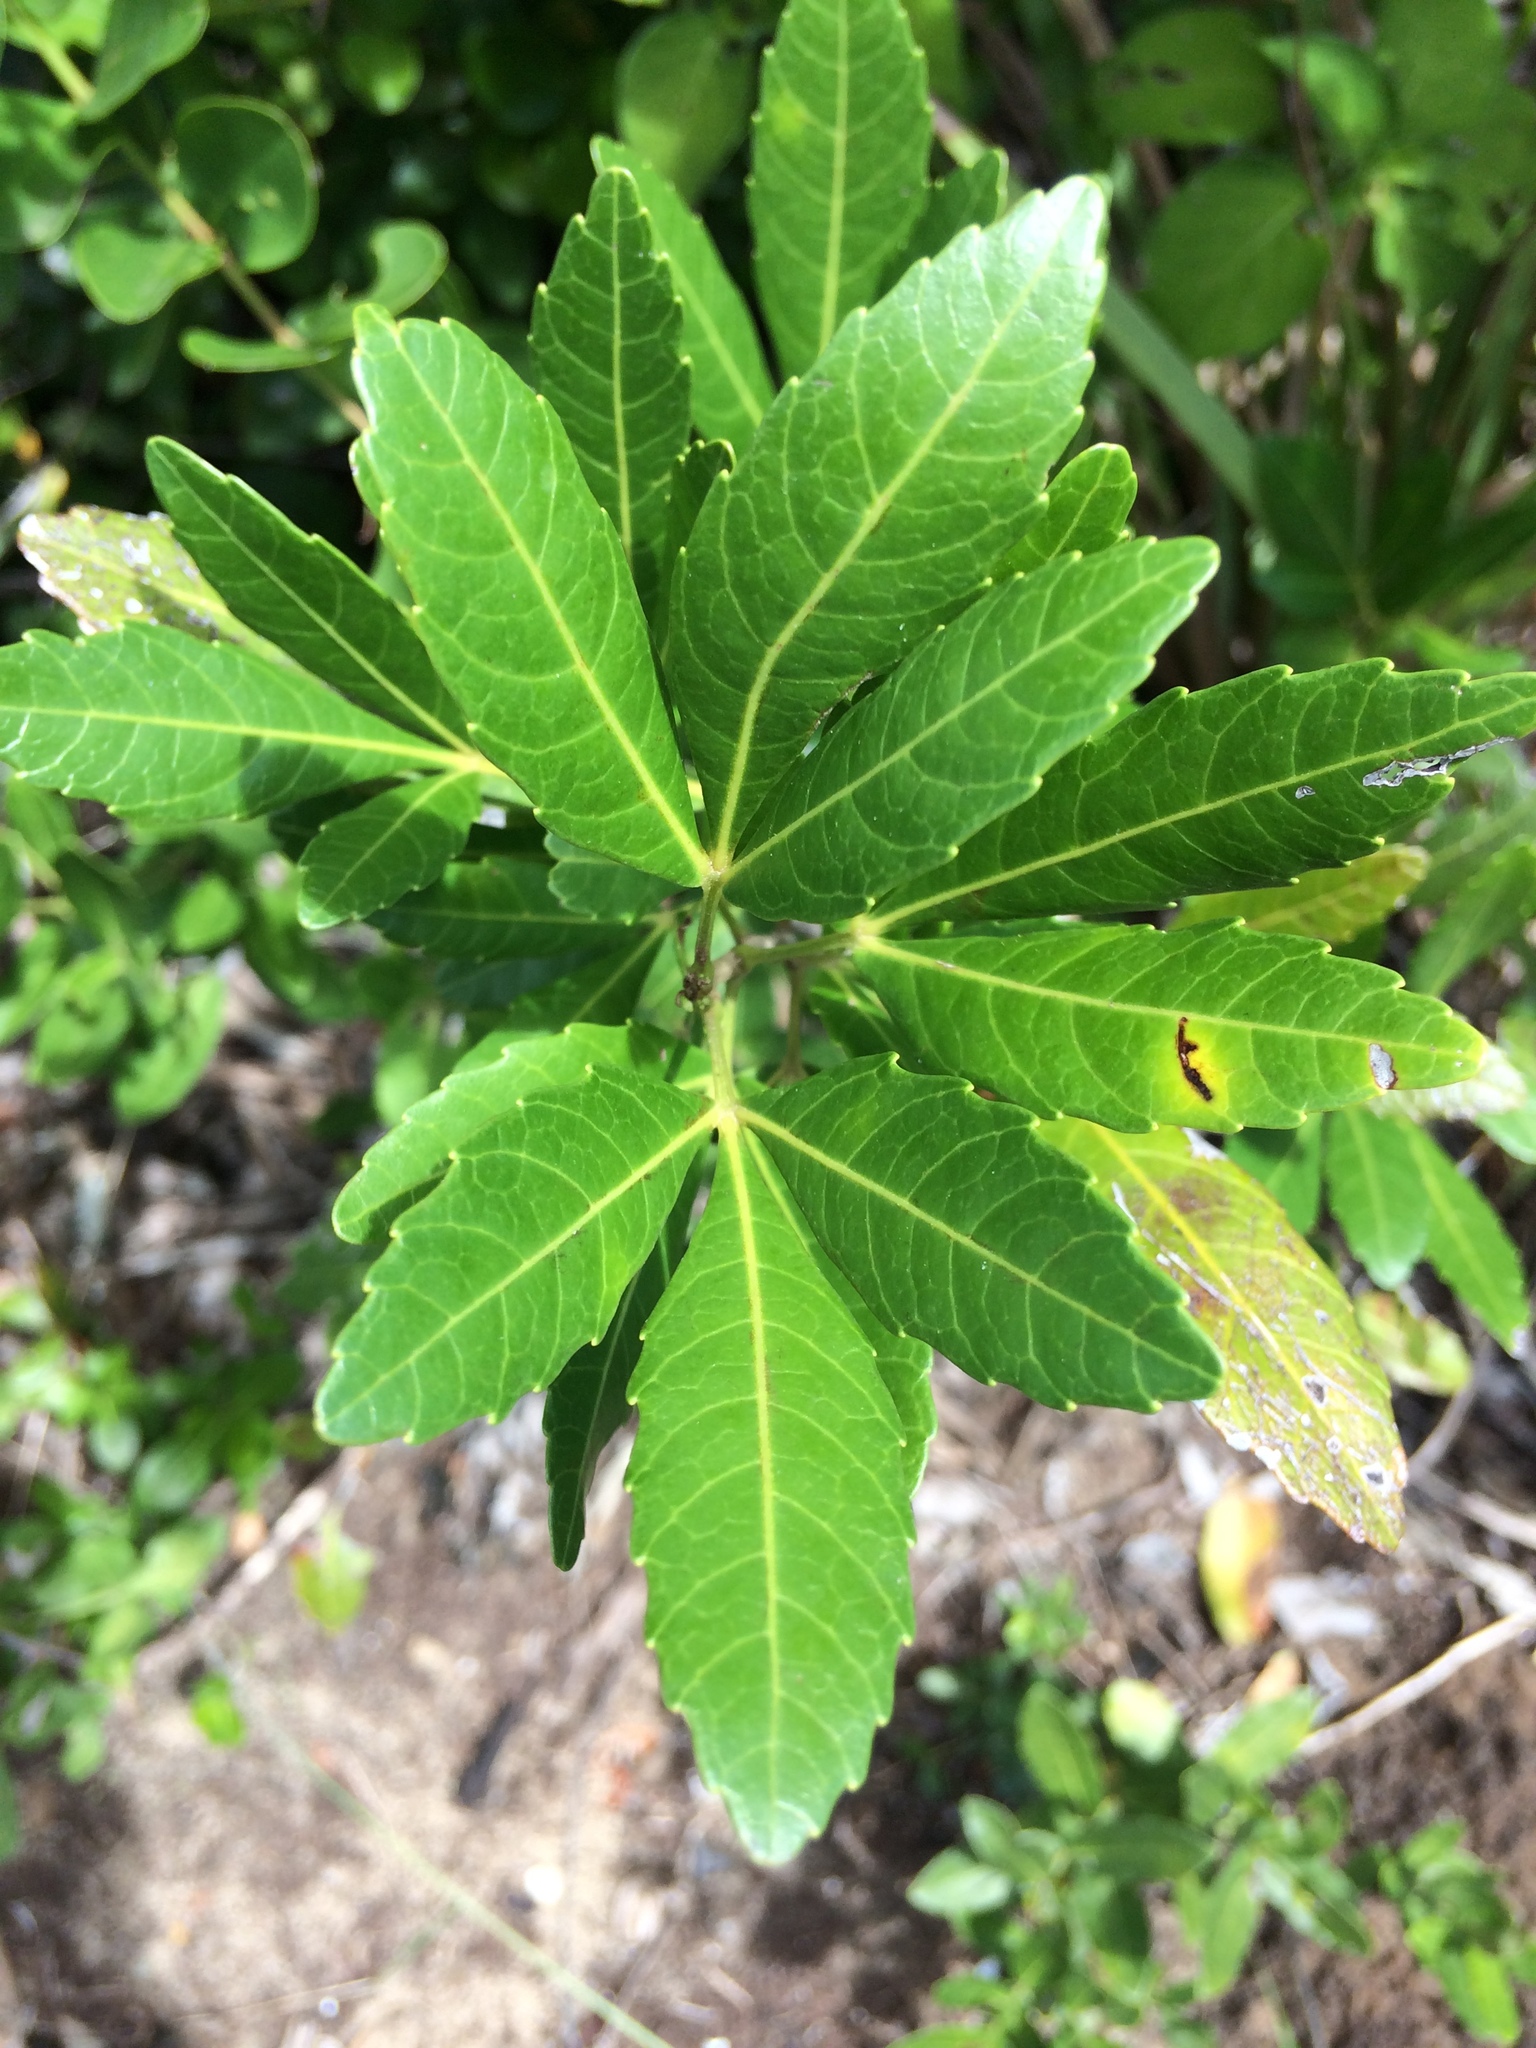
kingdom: Plantae
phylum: Tracheophyta
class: Magnoliopsida
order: Sapindales
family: Sapindaceae
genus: Allophylus
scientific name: Allophylus natalensis
